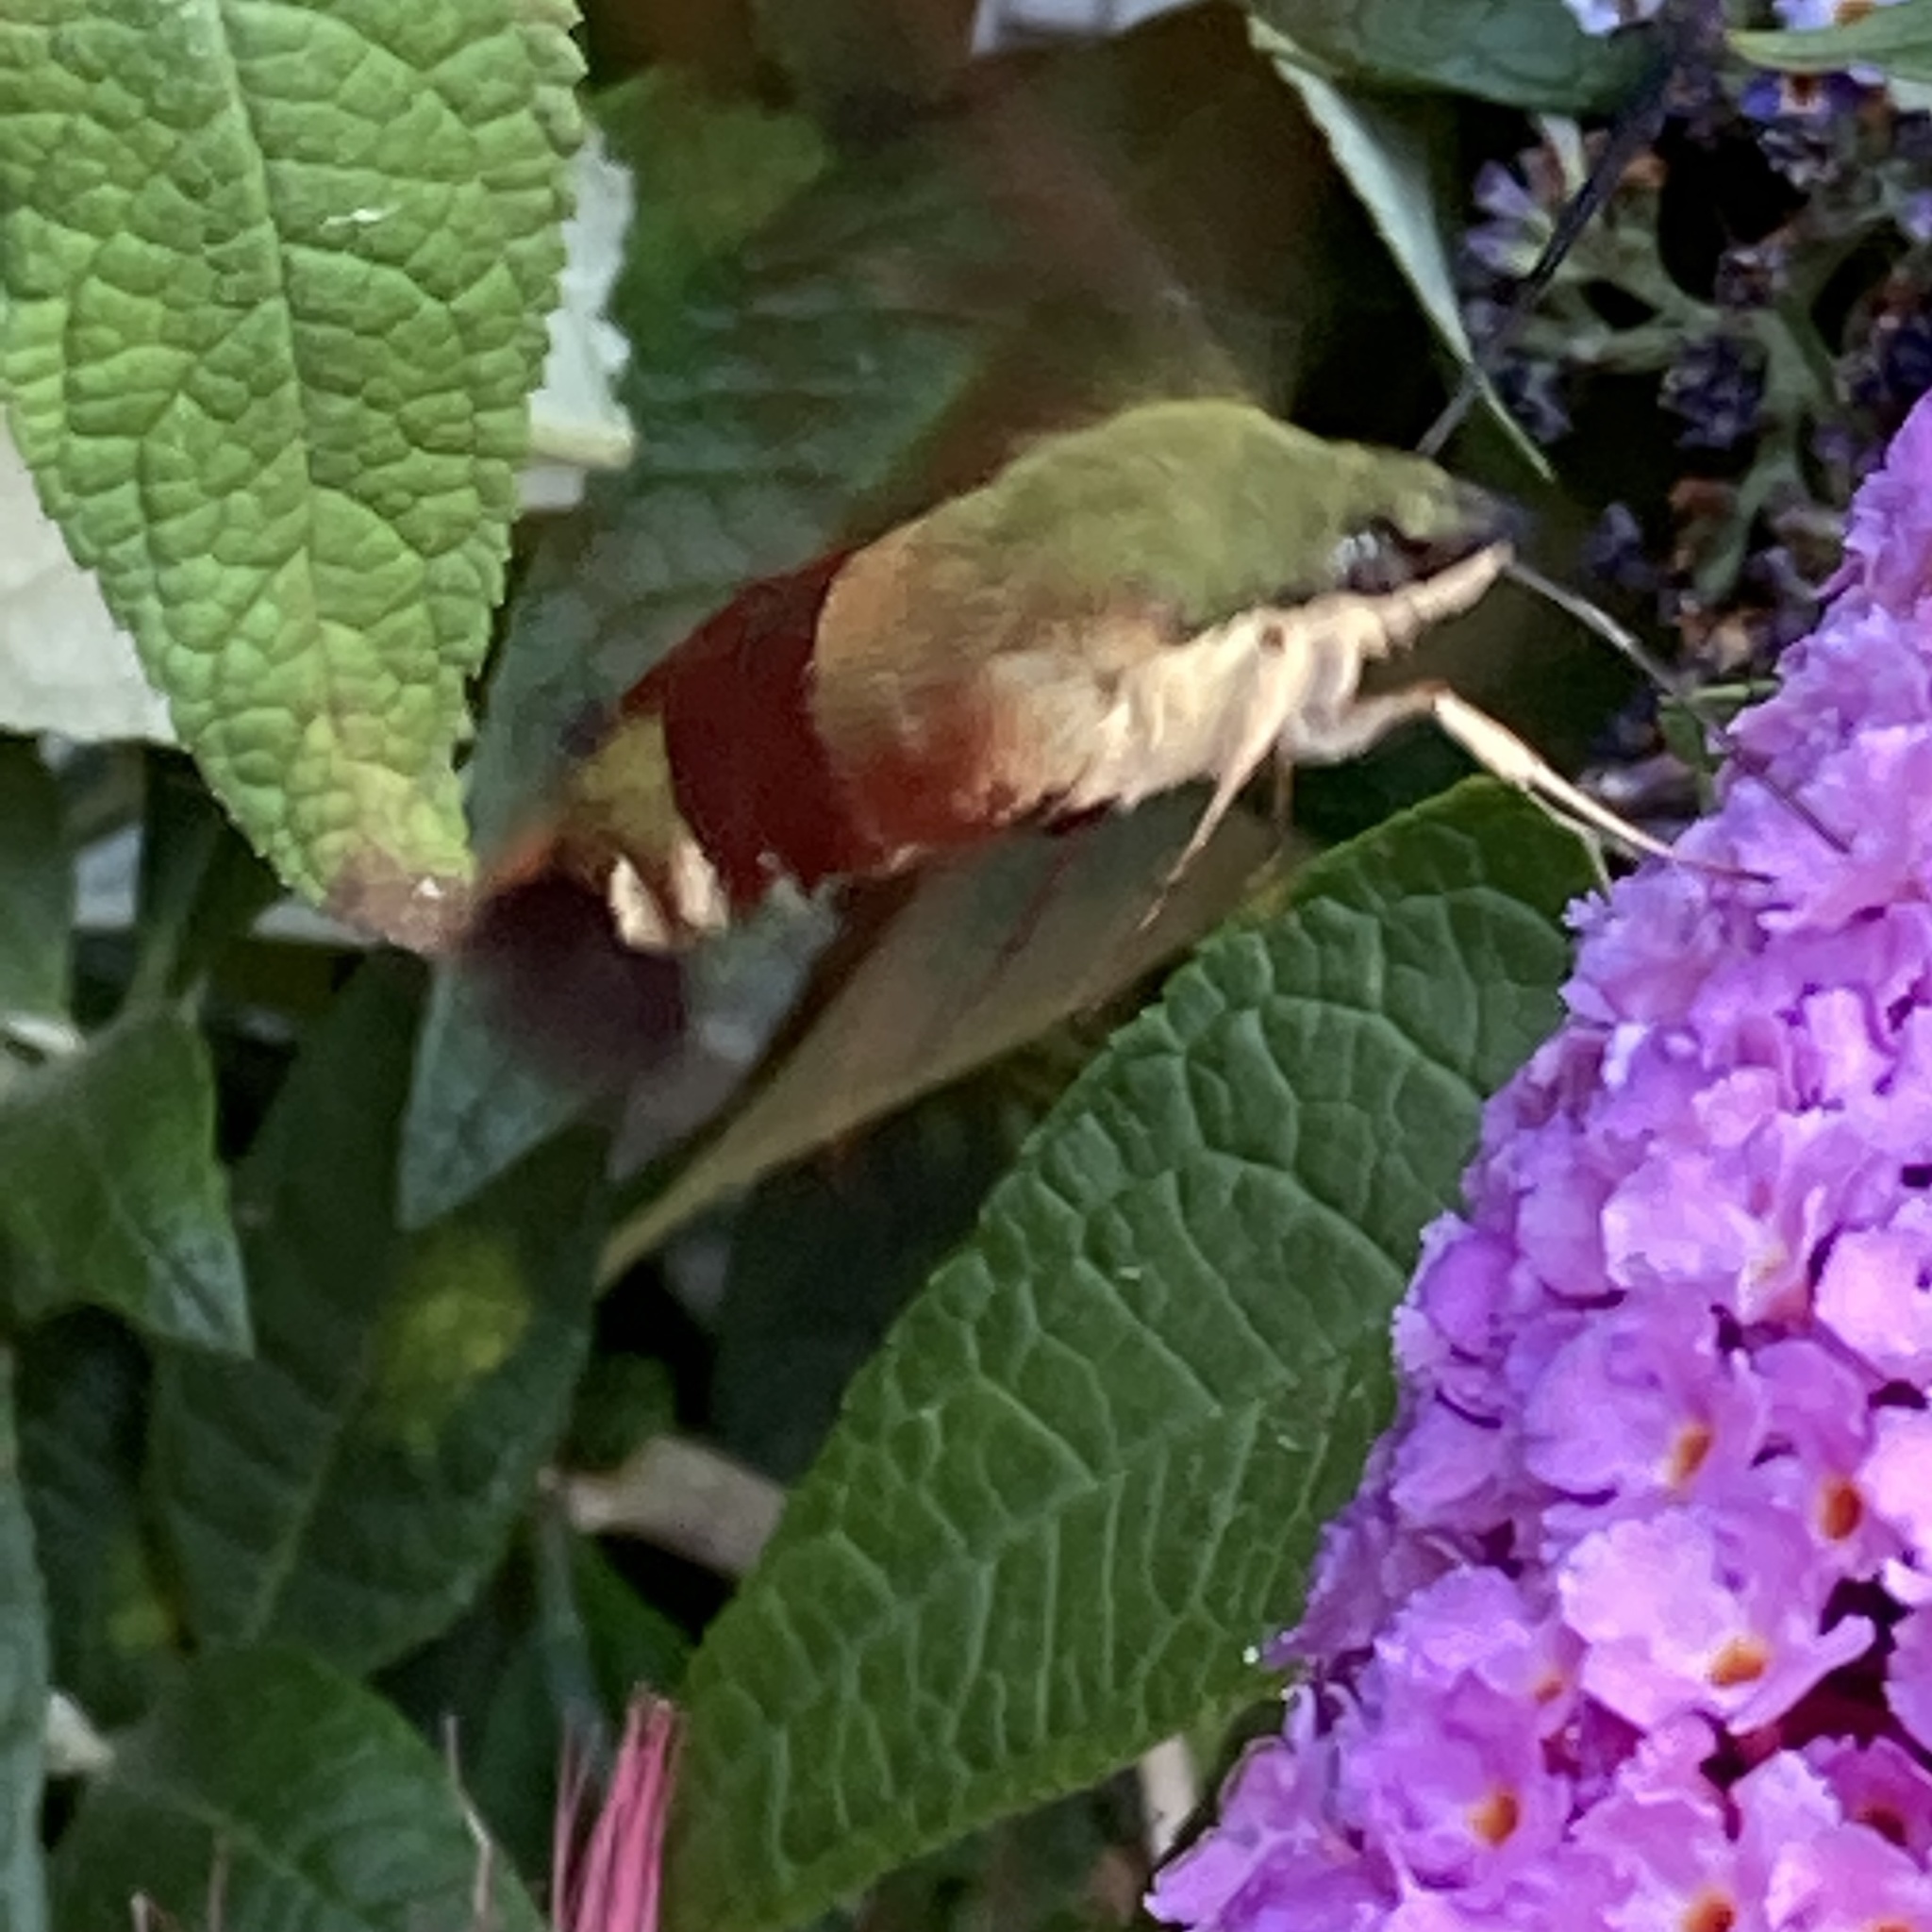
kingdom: Animalia
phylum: Arthropoda
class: Insecta
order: Lepidoptera
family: Sphingidae
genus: Hemaris
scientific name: Hemaris thysbe
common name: Common clear-wing
